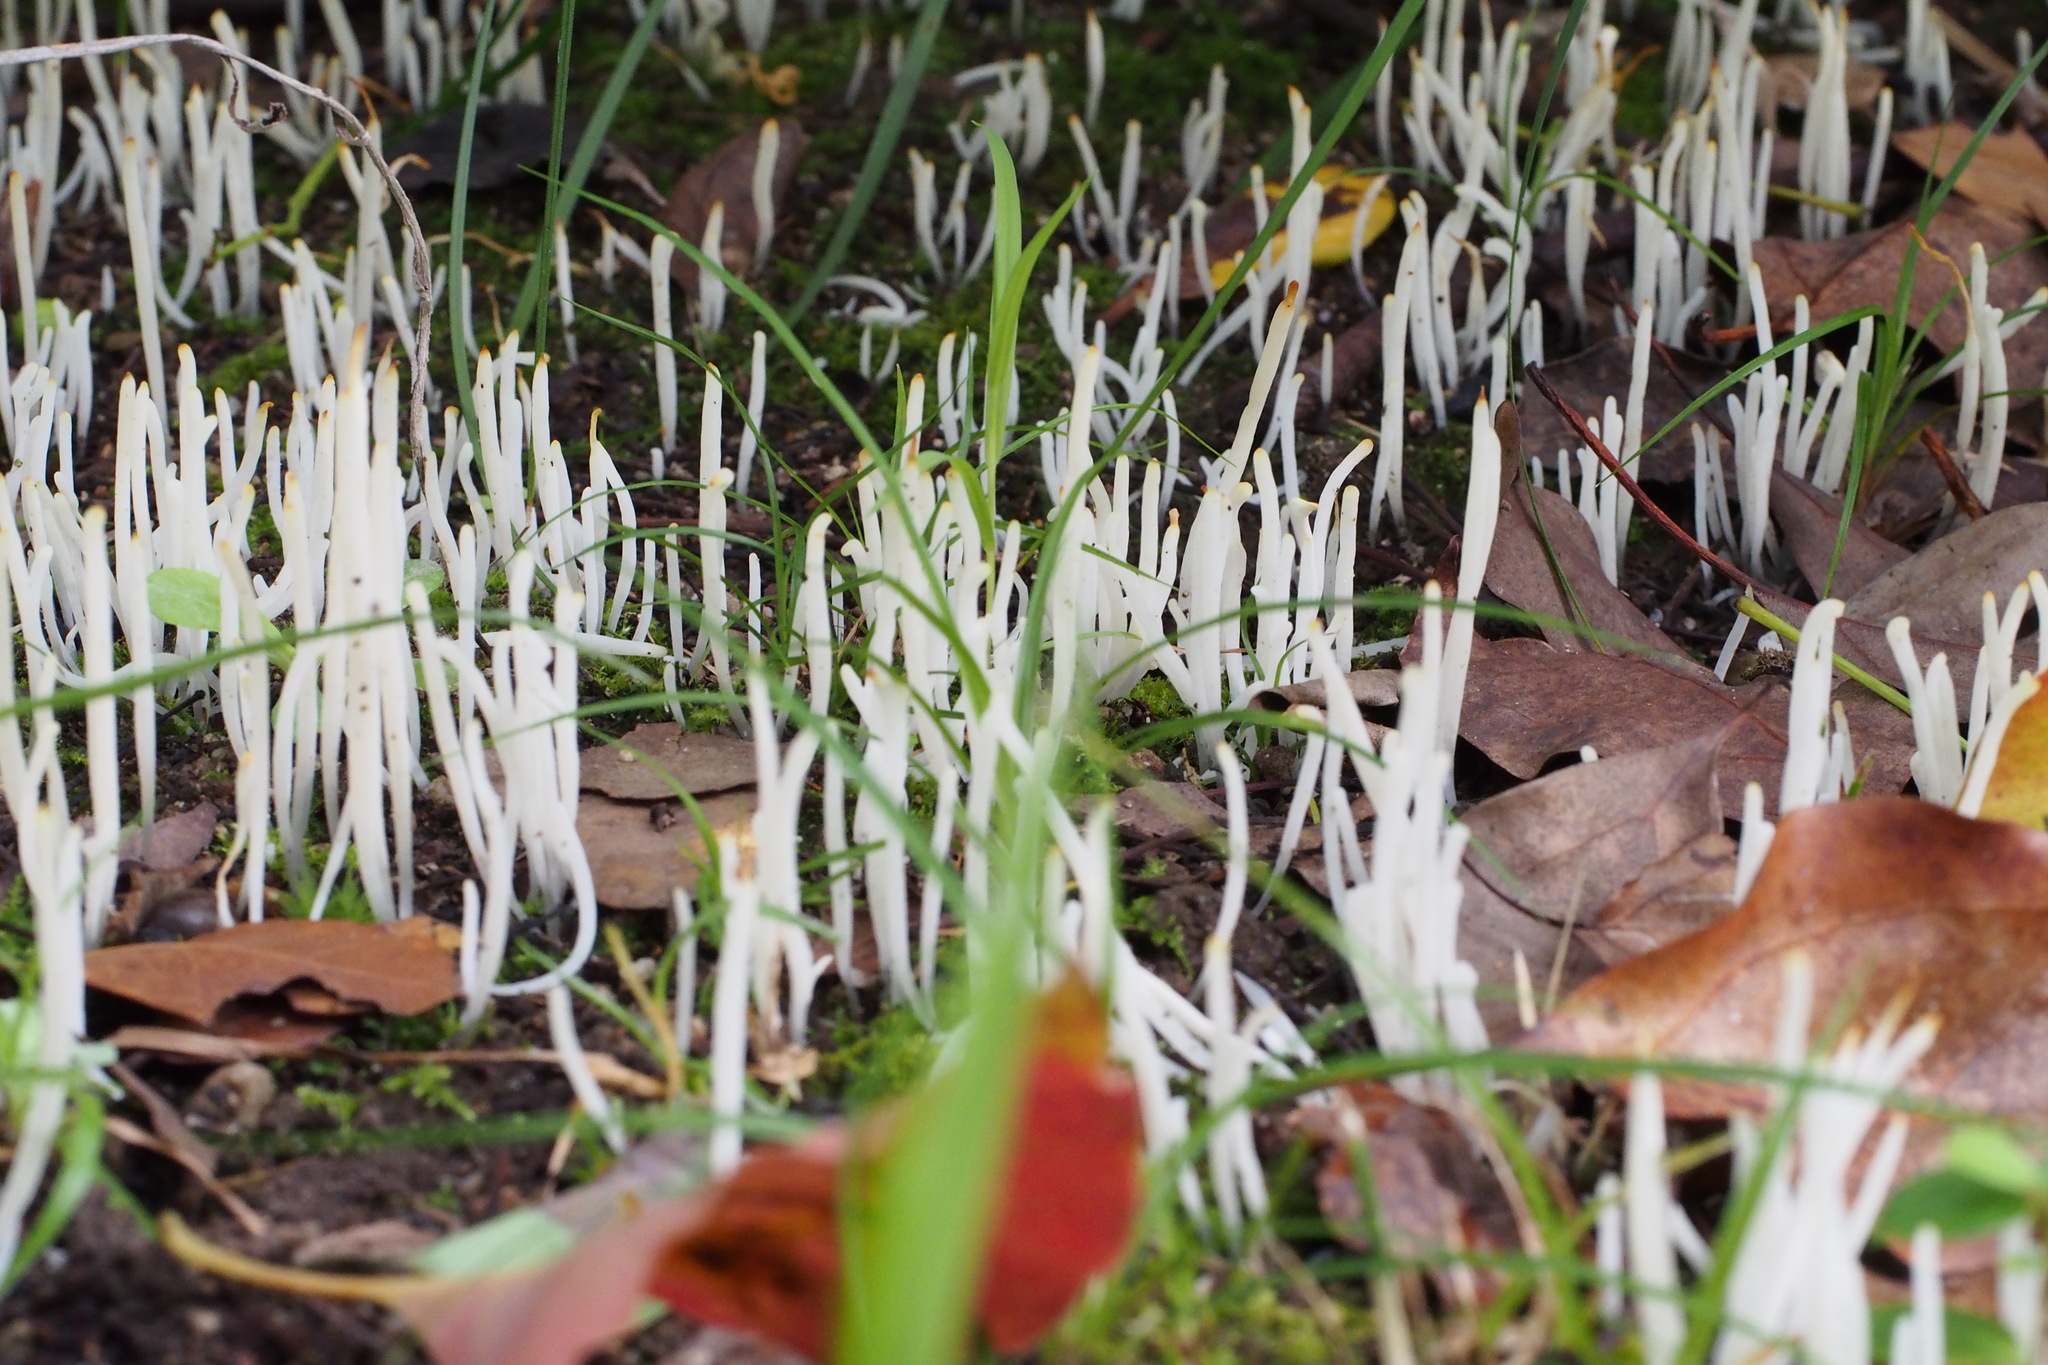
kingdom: Fungi
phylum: Basidiomycota
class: Agaricomycetes
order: Agaricales
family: Clavariaceae
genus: Clavaria
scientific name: Clavaria fragilis
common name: White spindles
